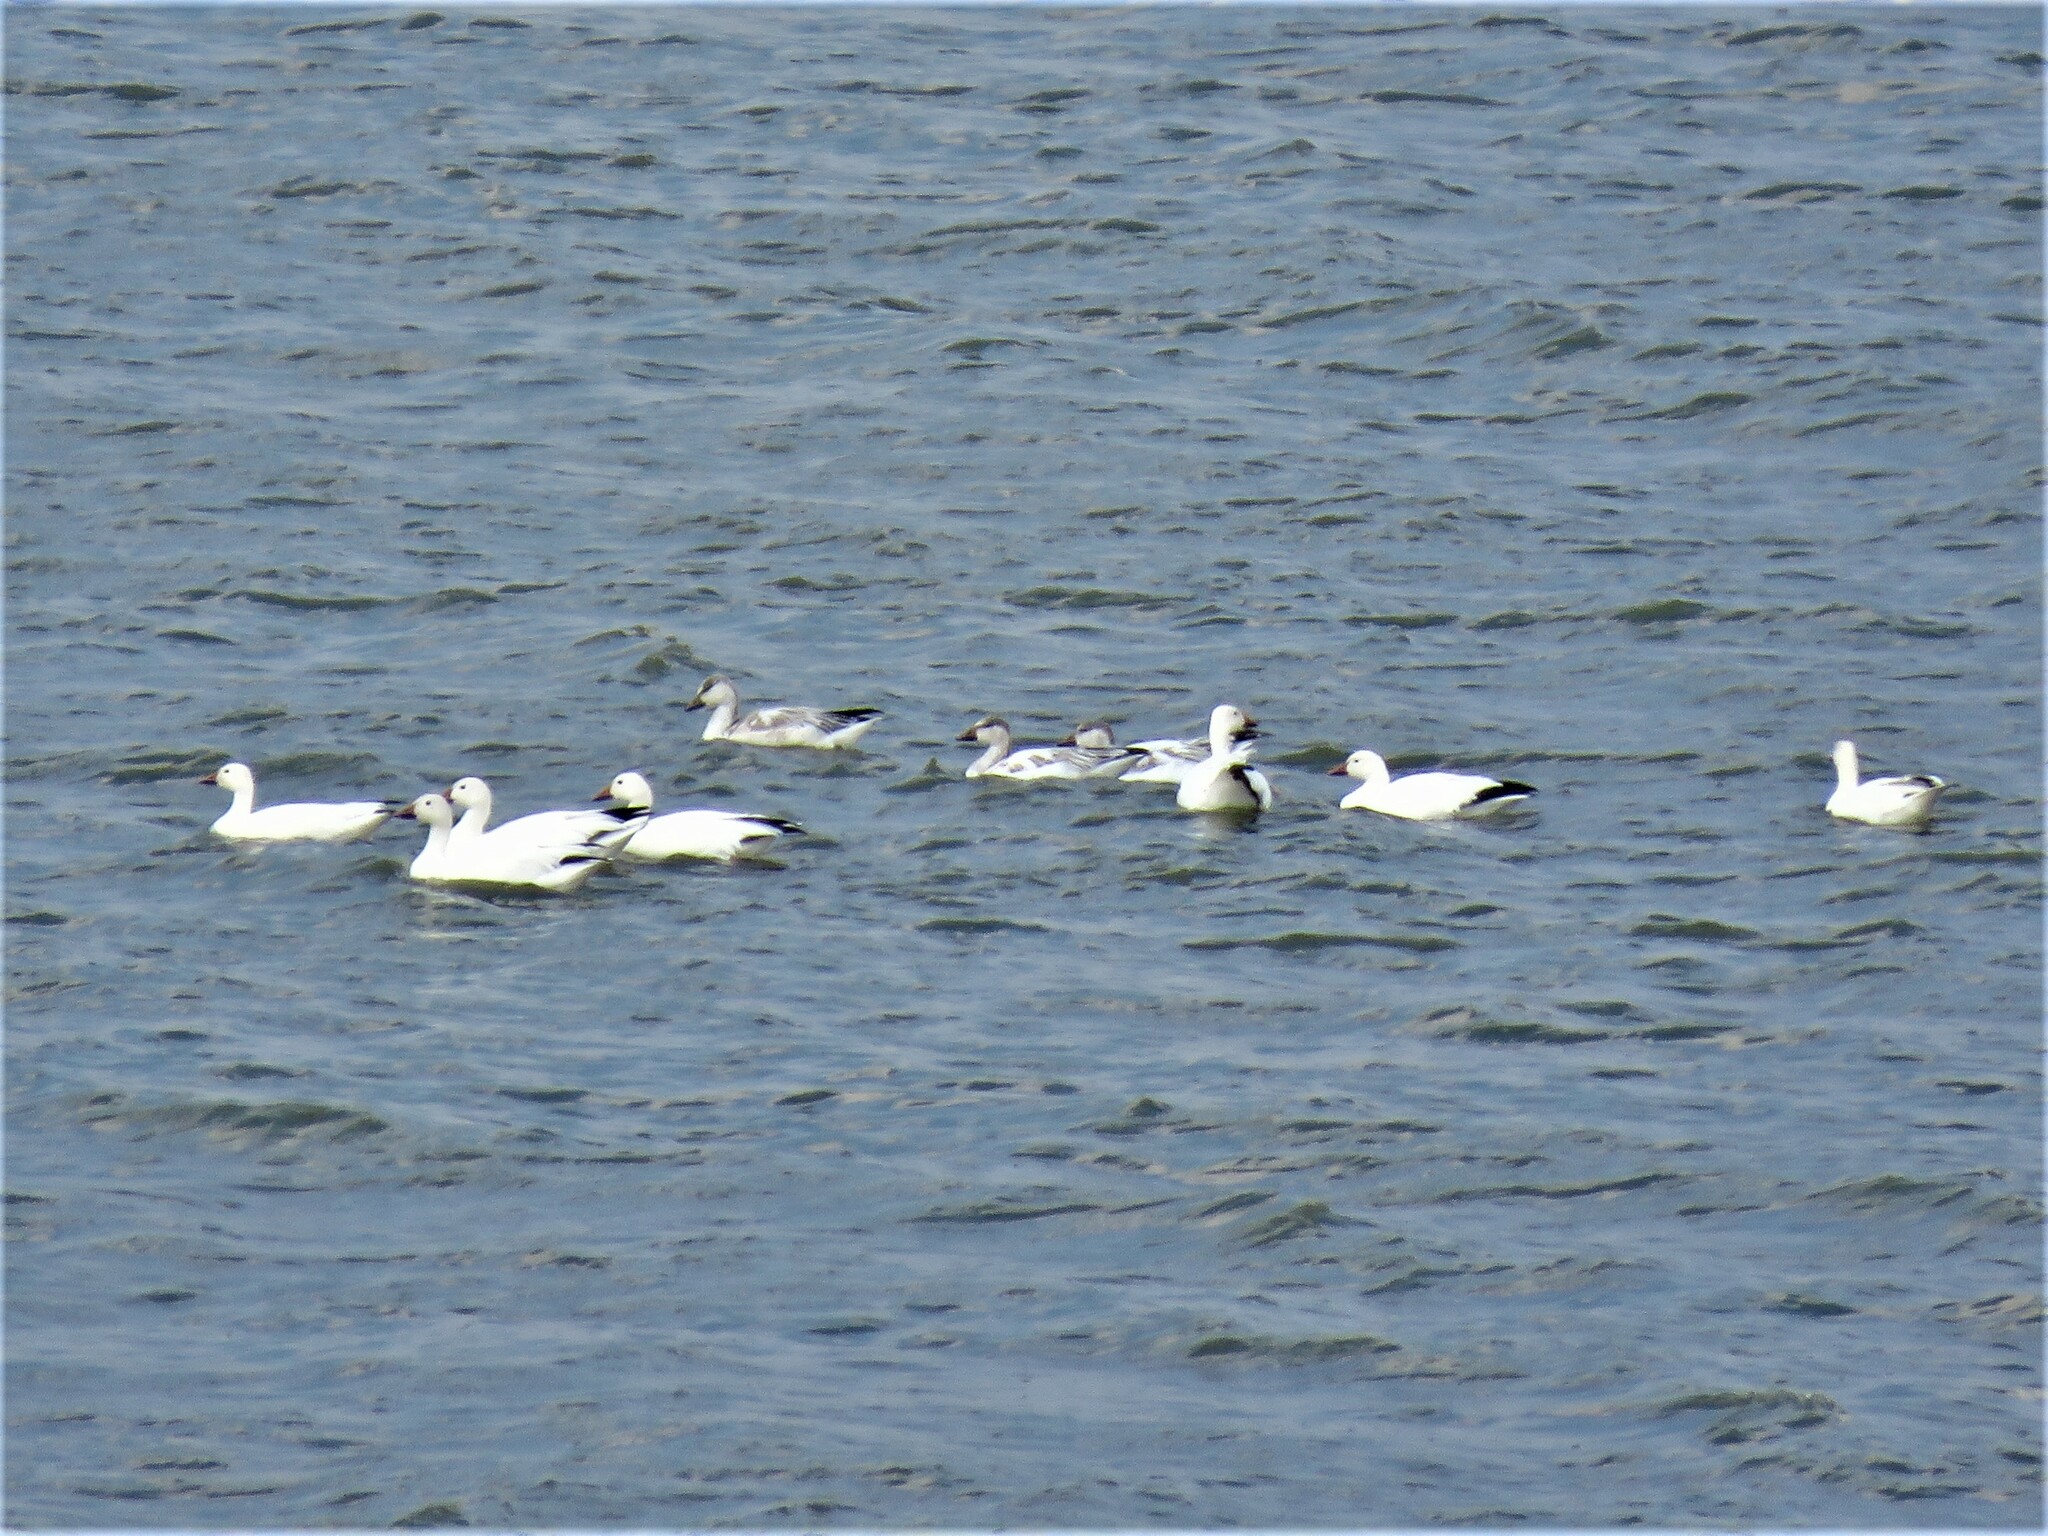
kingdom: Animalia
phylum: Chordata
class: Aves
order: Anseriformes
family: Anatidae
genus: Anser
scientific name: Anser caerulescens
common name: Snow goose
